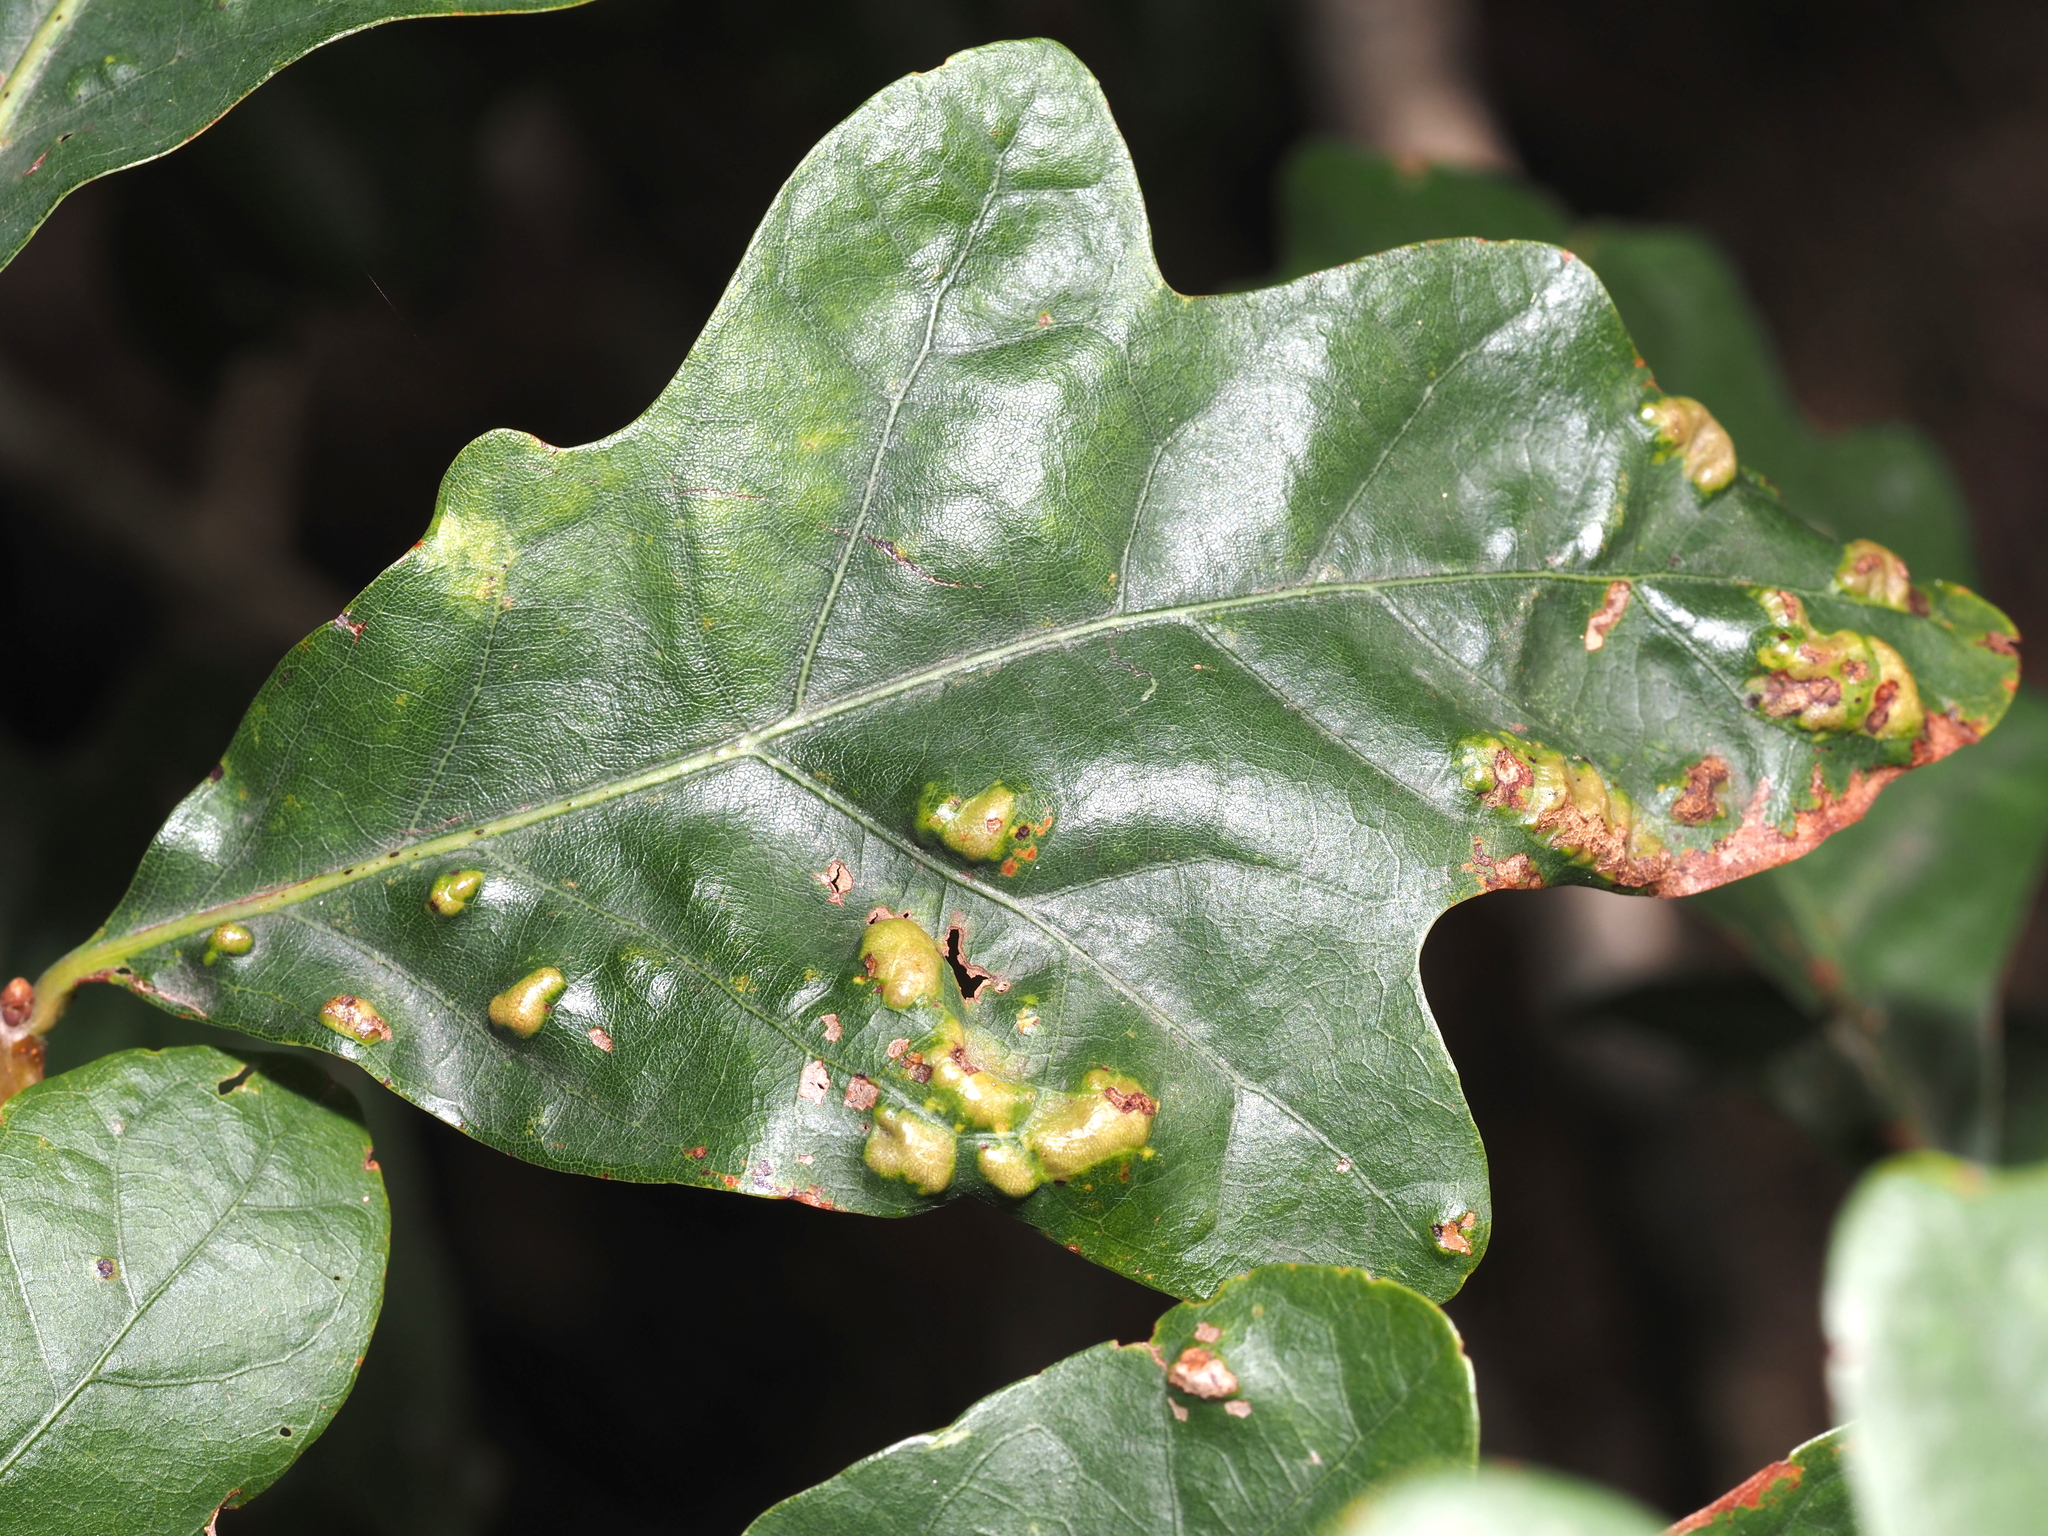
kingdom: Animalia
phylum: Arthropoda
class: Arachnida
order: Trombidiformes
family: Eriophyidae
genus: Aceria
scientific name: Aceria
